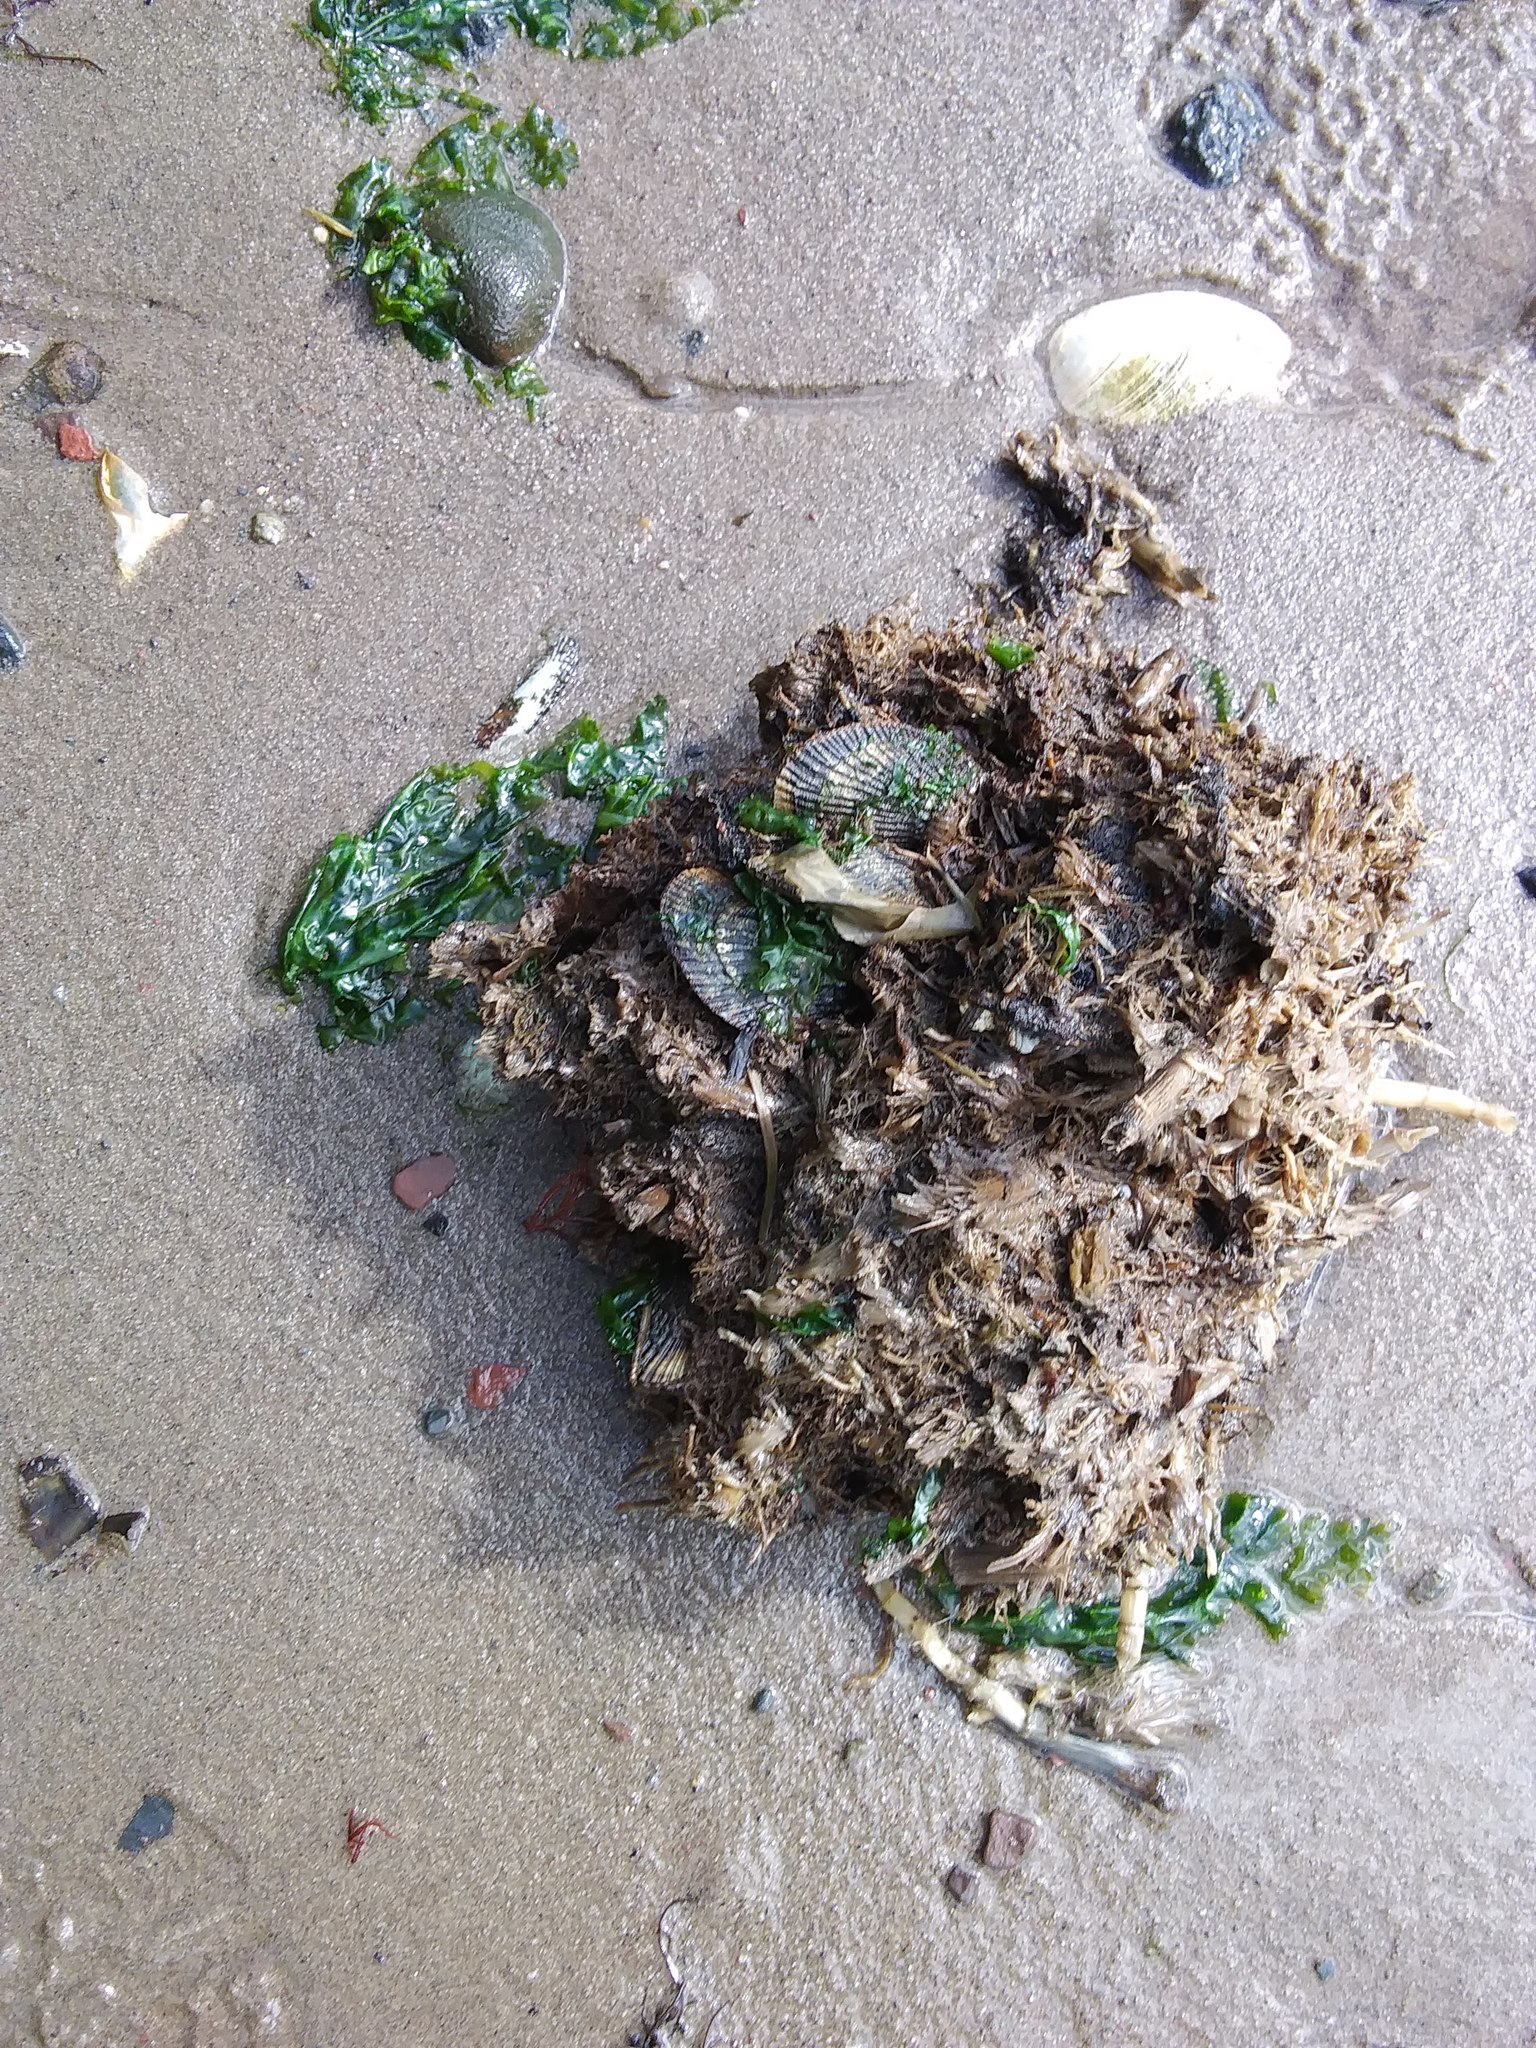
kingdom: Animalia
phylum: Mollusca
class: Bivalvia
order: Mytilida
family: Mytilidae
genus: Geukensia
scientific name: Geukensia demissa
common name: Ribbed mussel
